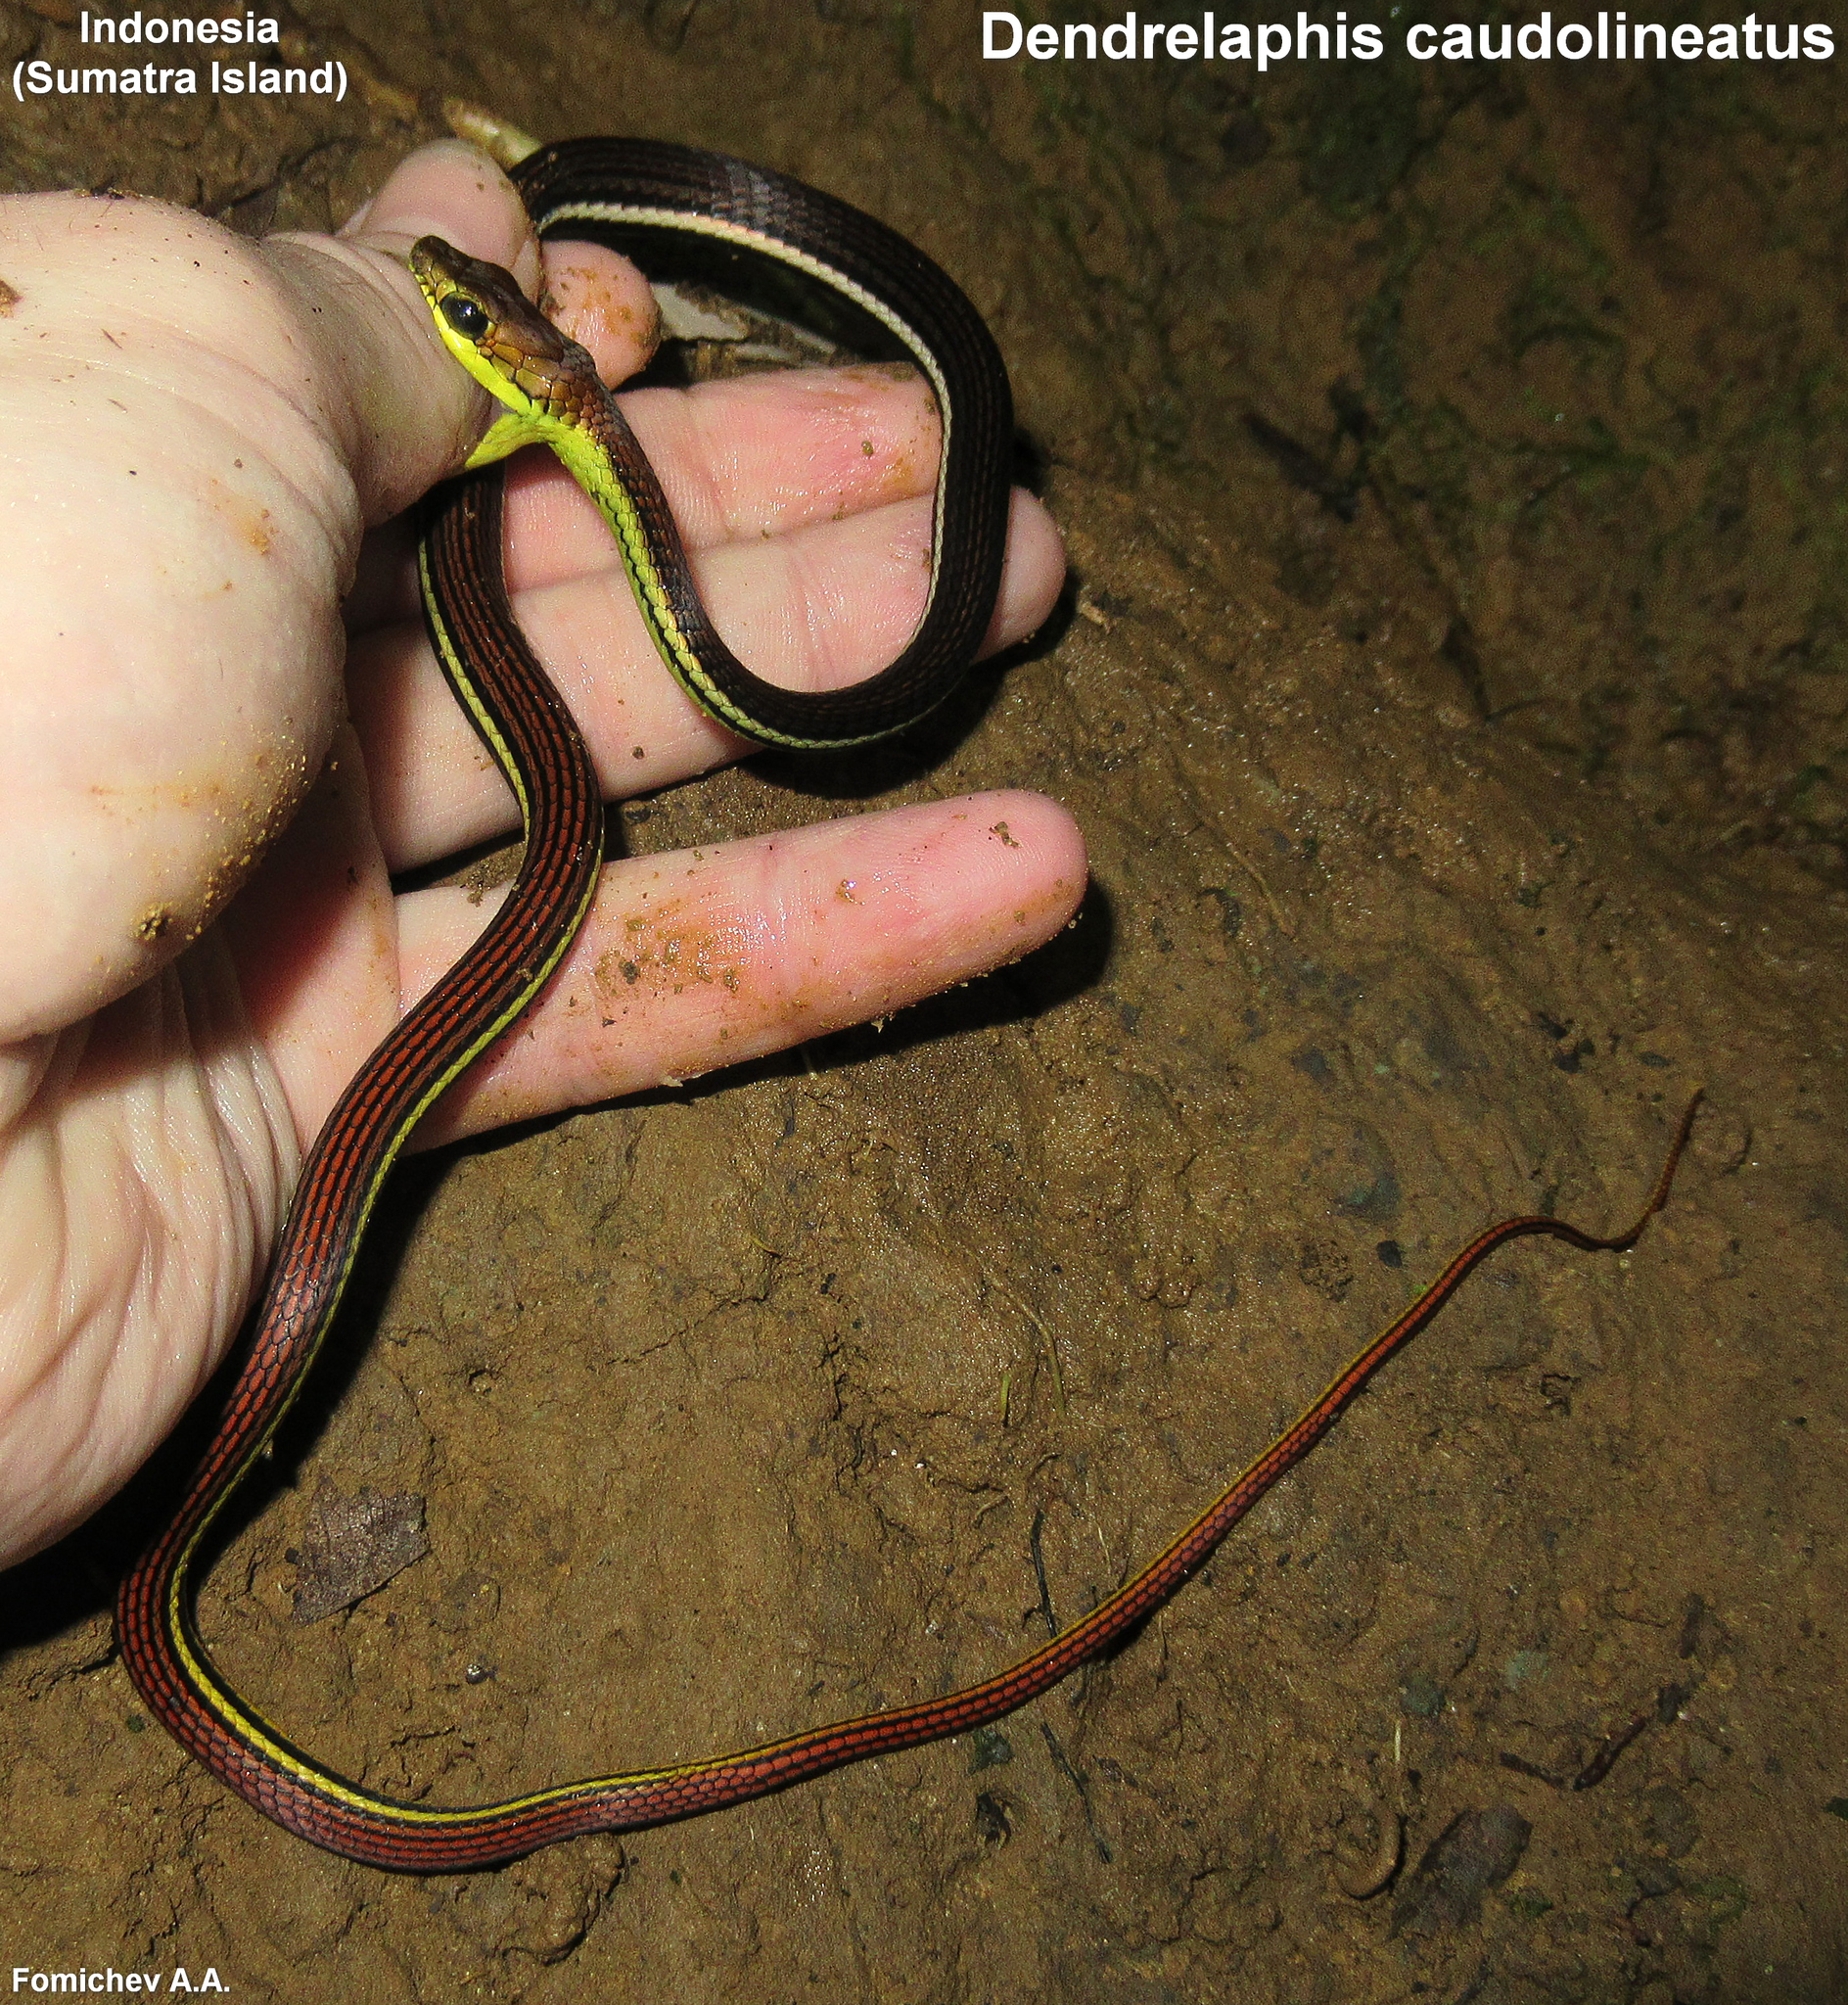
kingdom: Animalia
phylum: Chordata
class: Squamata
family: Colubridae
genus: Dendrelaphis
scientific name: Dendrelaphis caudolineatus
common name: Striped bronzeback
